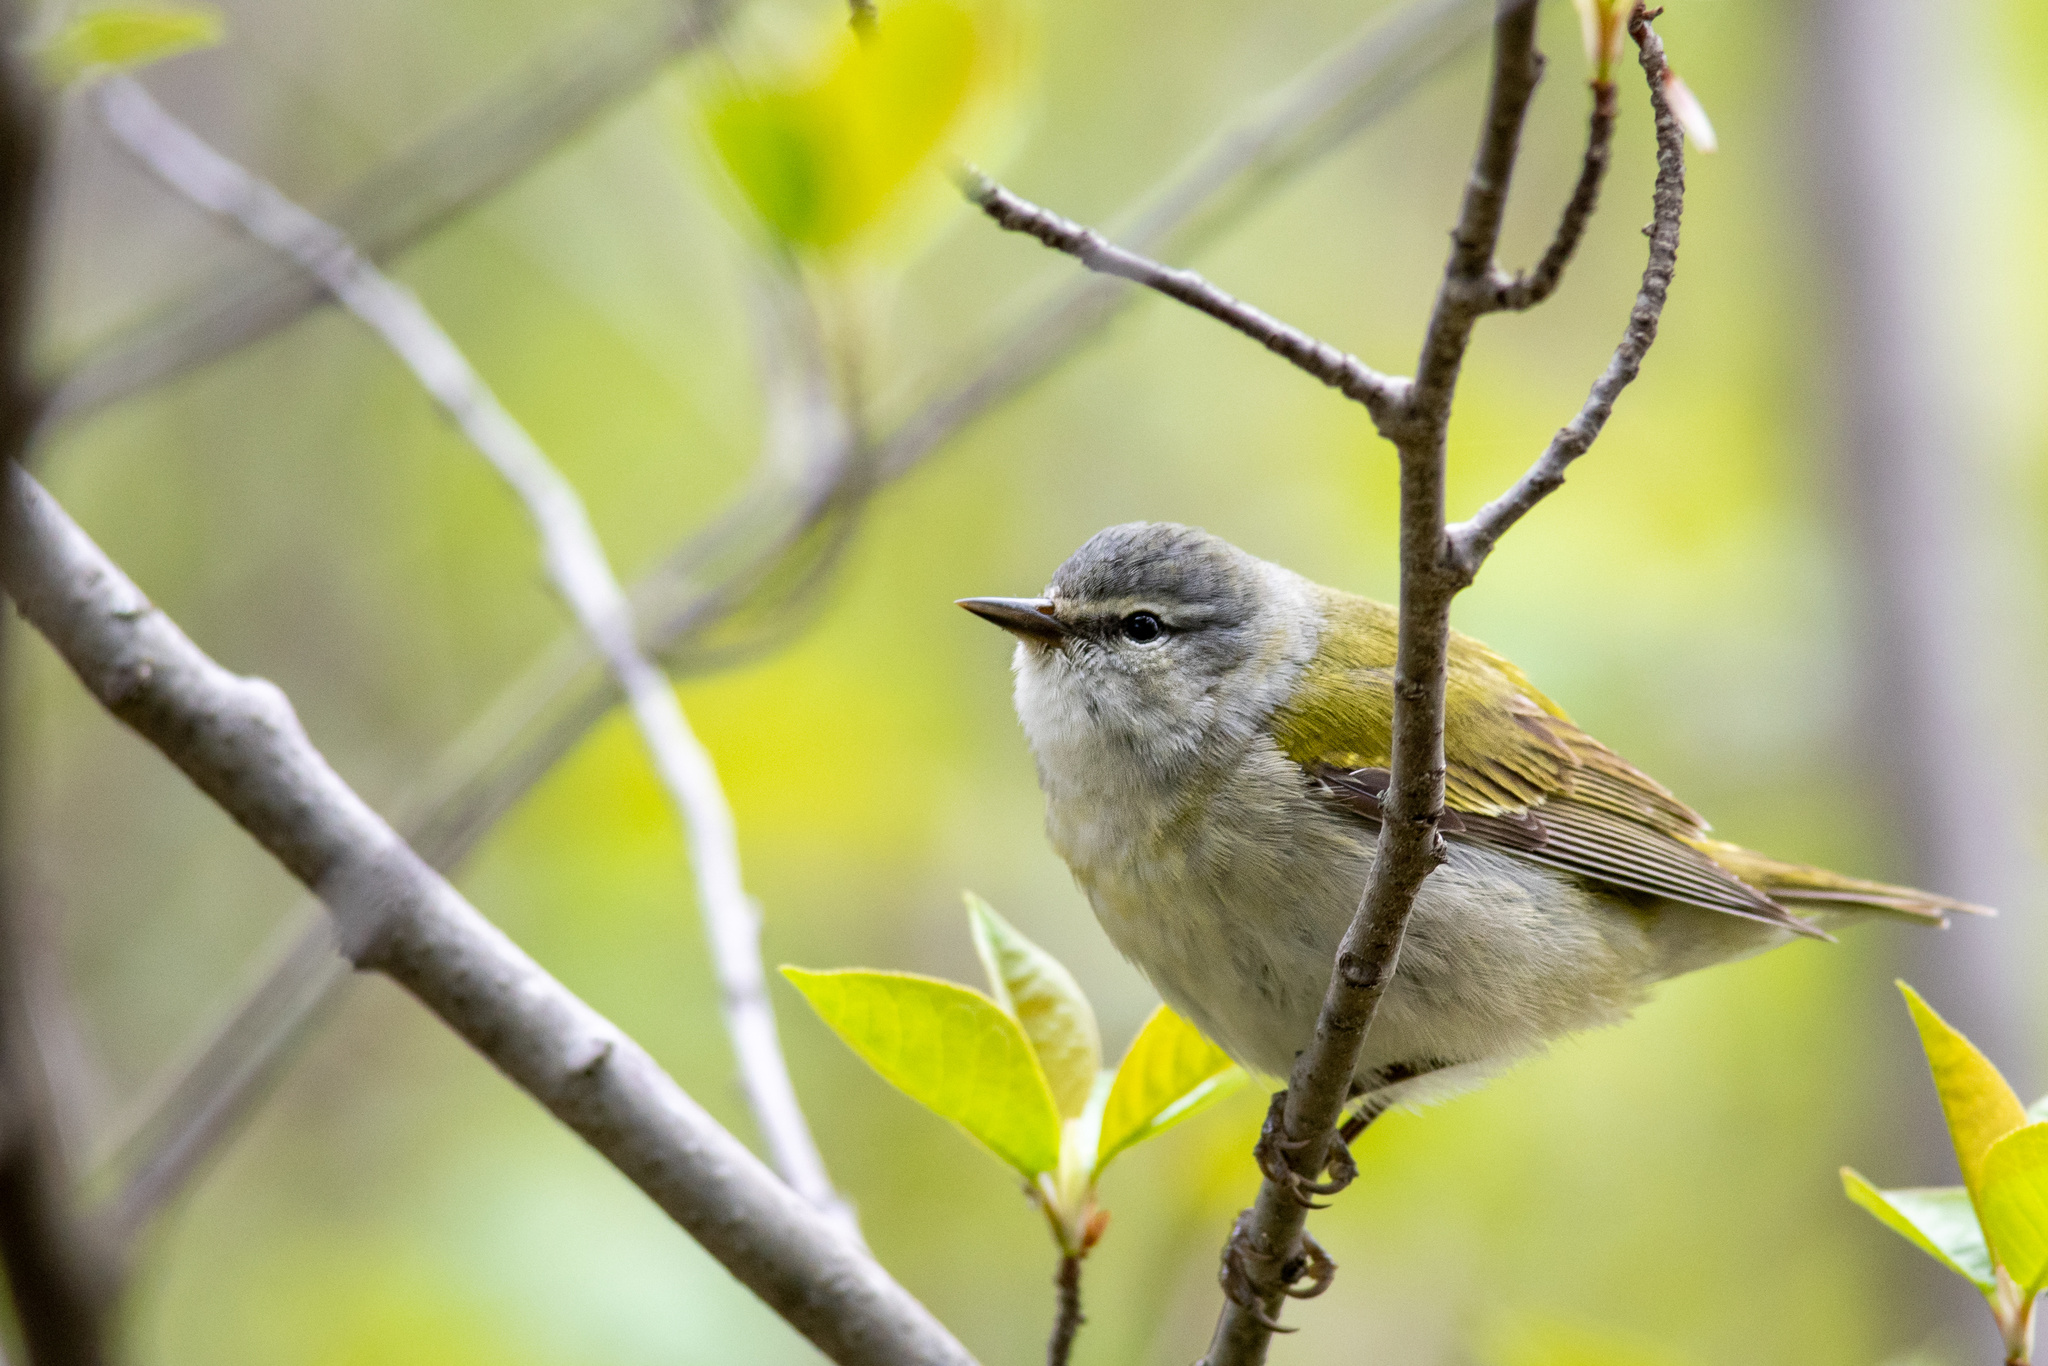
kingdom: Animalia
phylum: Chordata
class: Aves
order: Passeriformes
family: Parulidae
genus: Leiothlypis
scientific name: Leiothlypis peregrina
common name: Tennessee warbler
